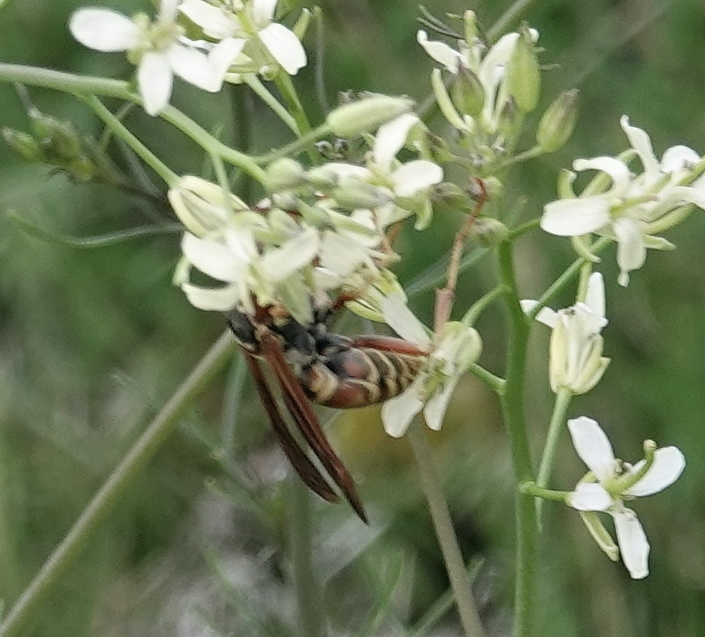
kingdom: Animalia
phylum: Arthropoda
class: Insecta
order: Hymenoptera
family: Eumenidae
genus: Polistes
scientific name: Polistes fuscatus
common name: Dark paper wasp
